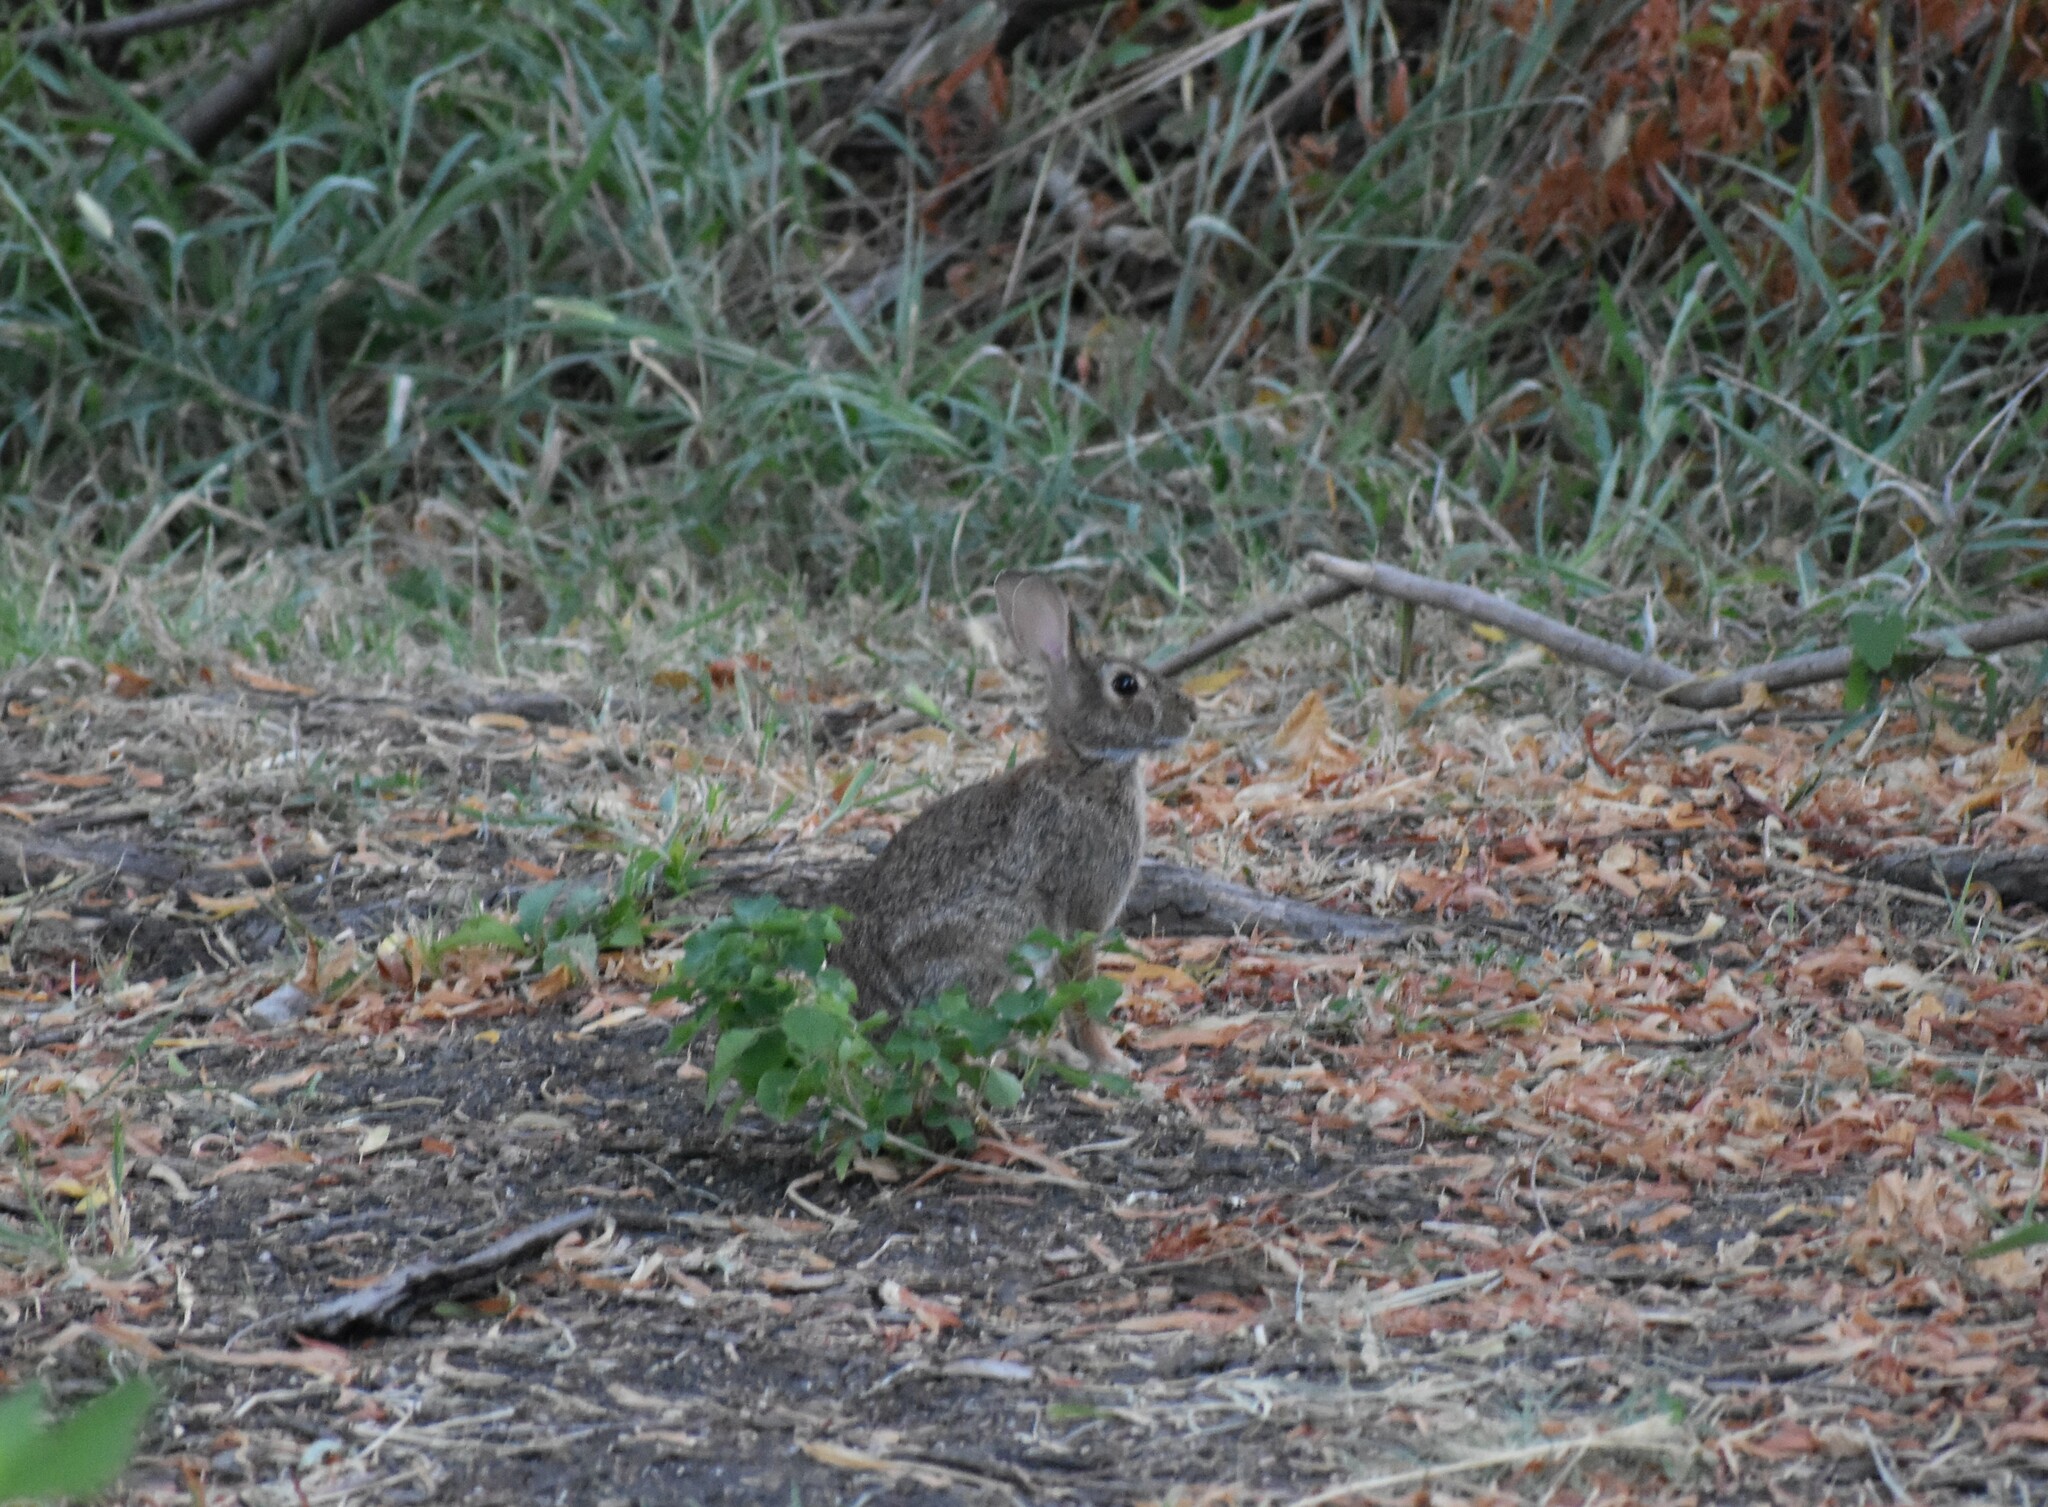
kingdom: Animalia
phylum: Chordata
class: Mammalia
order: Lagomorpha
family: Leporidae
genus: Sylvilagus
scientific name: Sylvilagus floridanus
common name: Eastern cottontail
